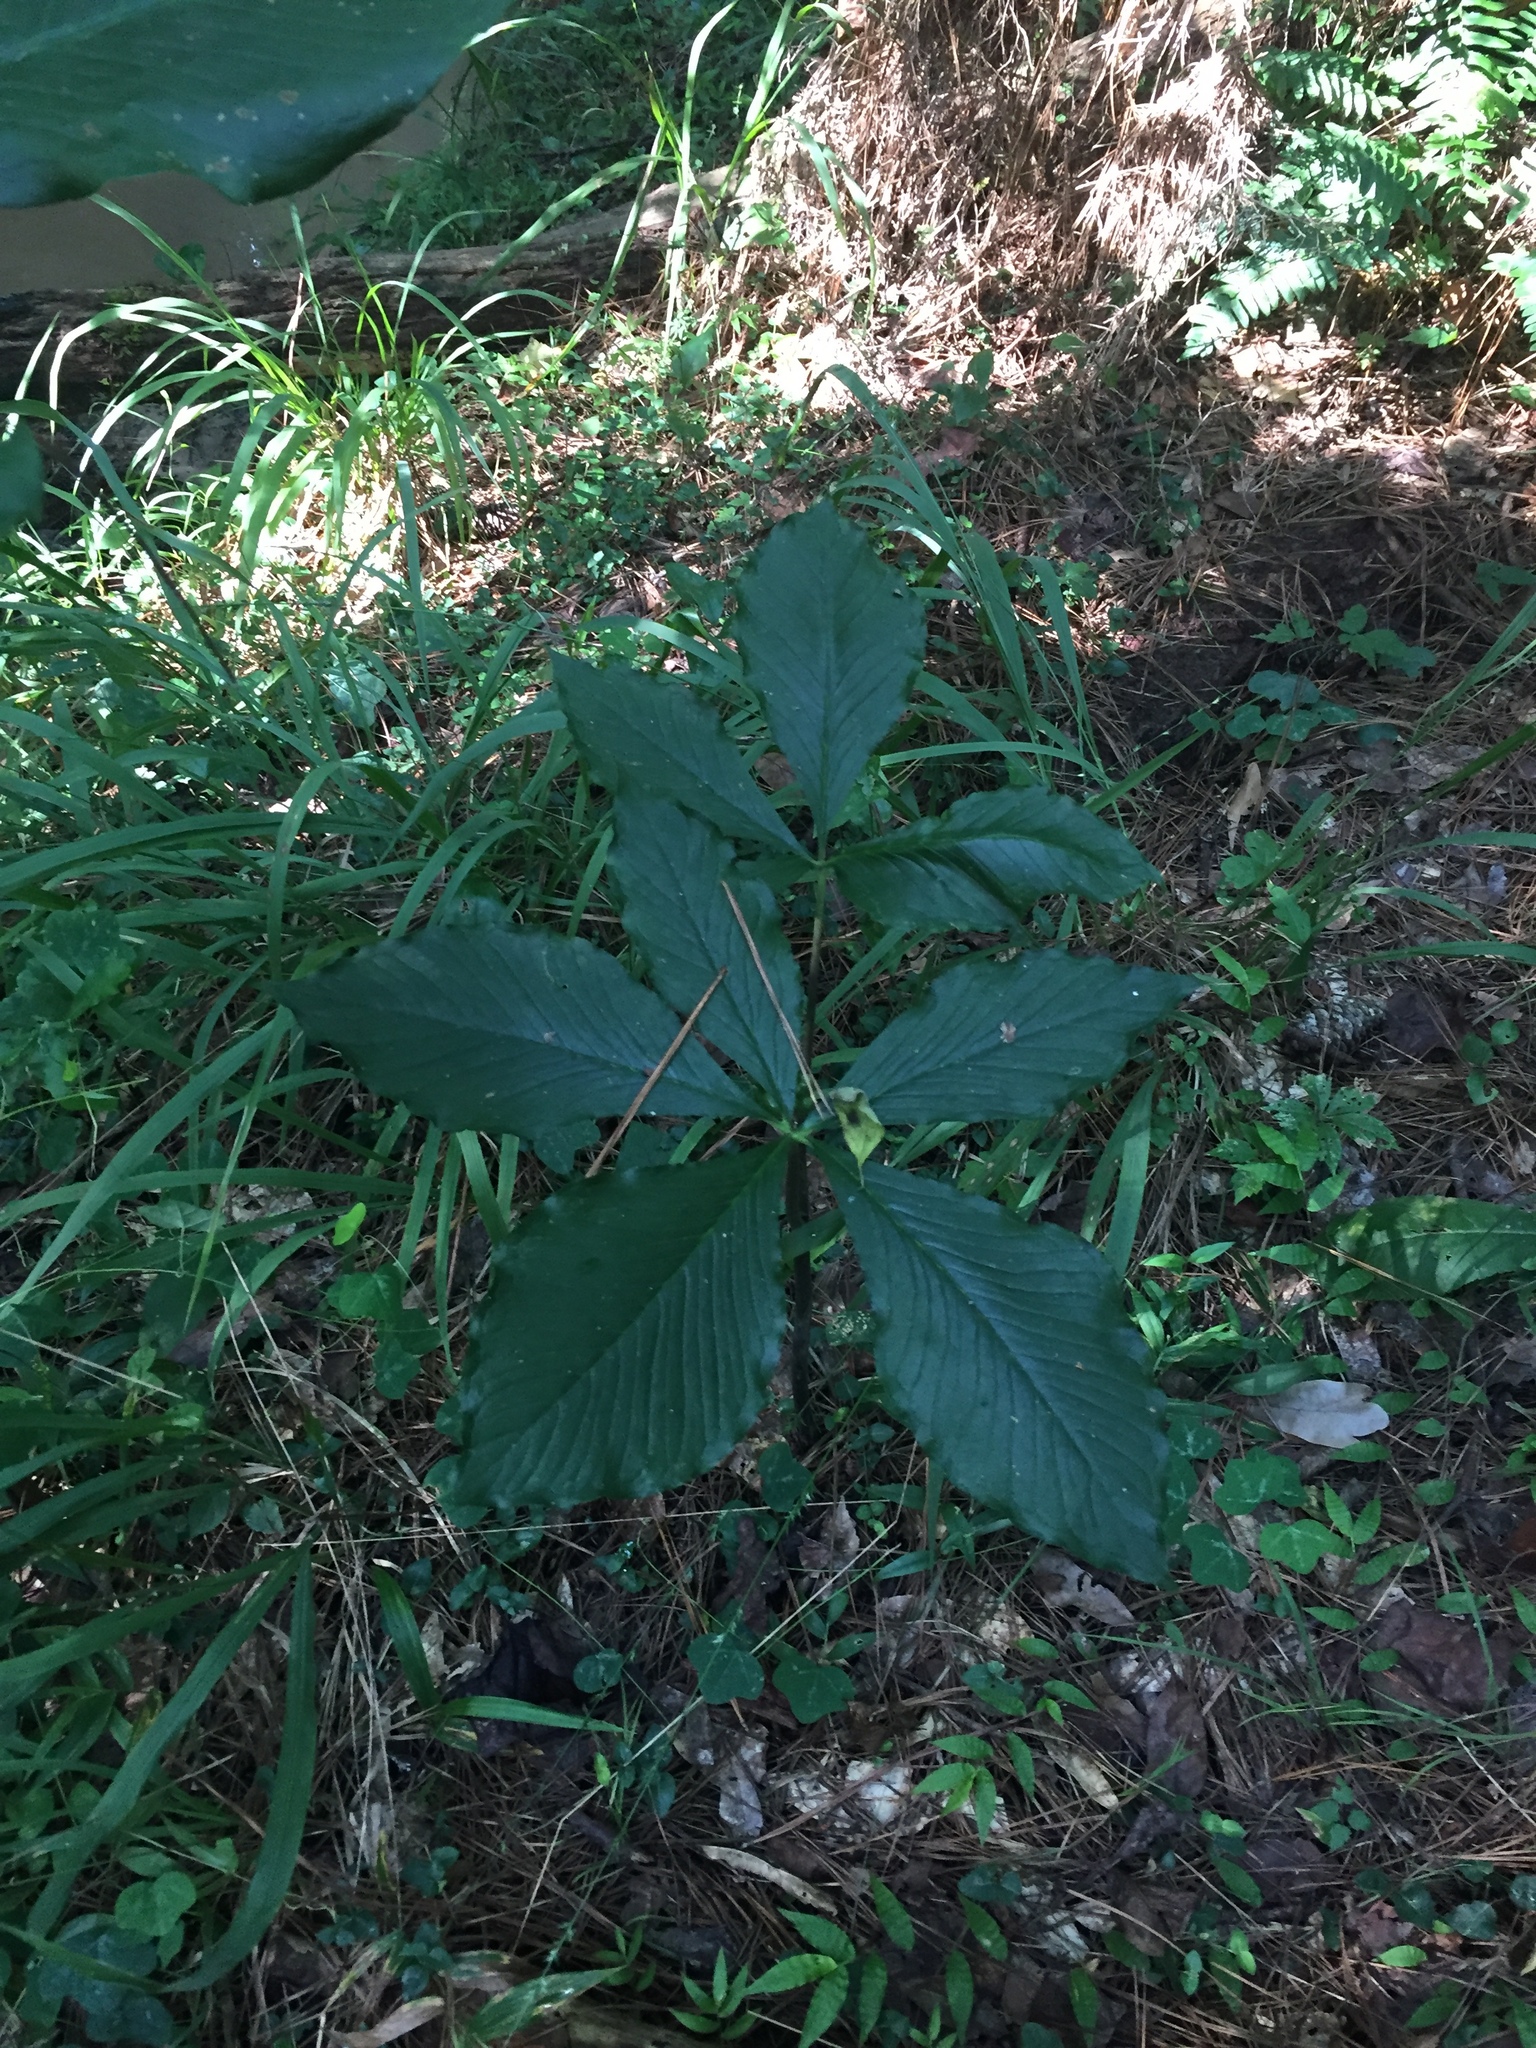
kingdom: Plantae
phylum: Tracheophyta
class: Liliopsida
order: Alismatales
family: Araceae
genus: Arisaema
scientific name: Arisaema quinatum
